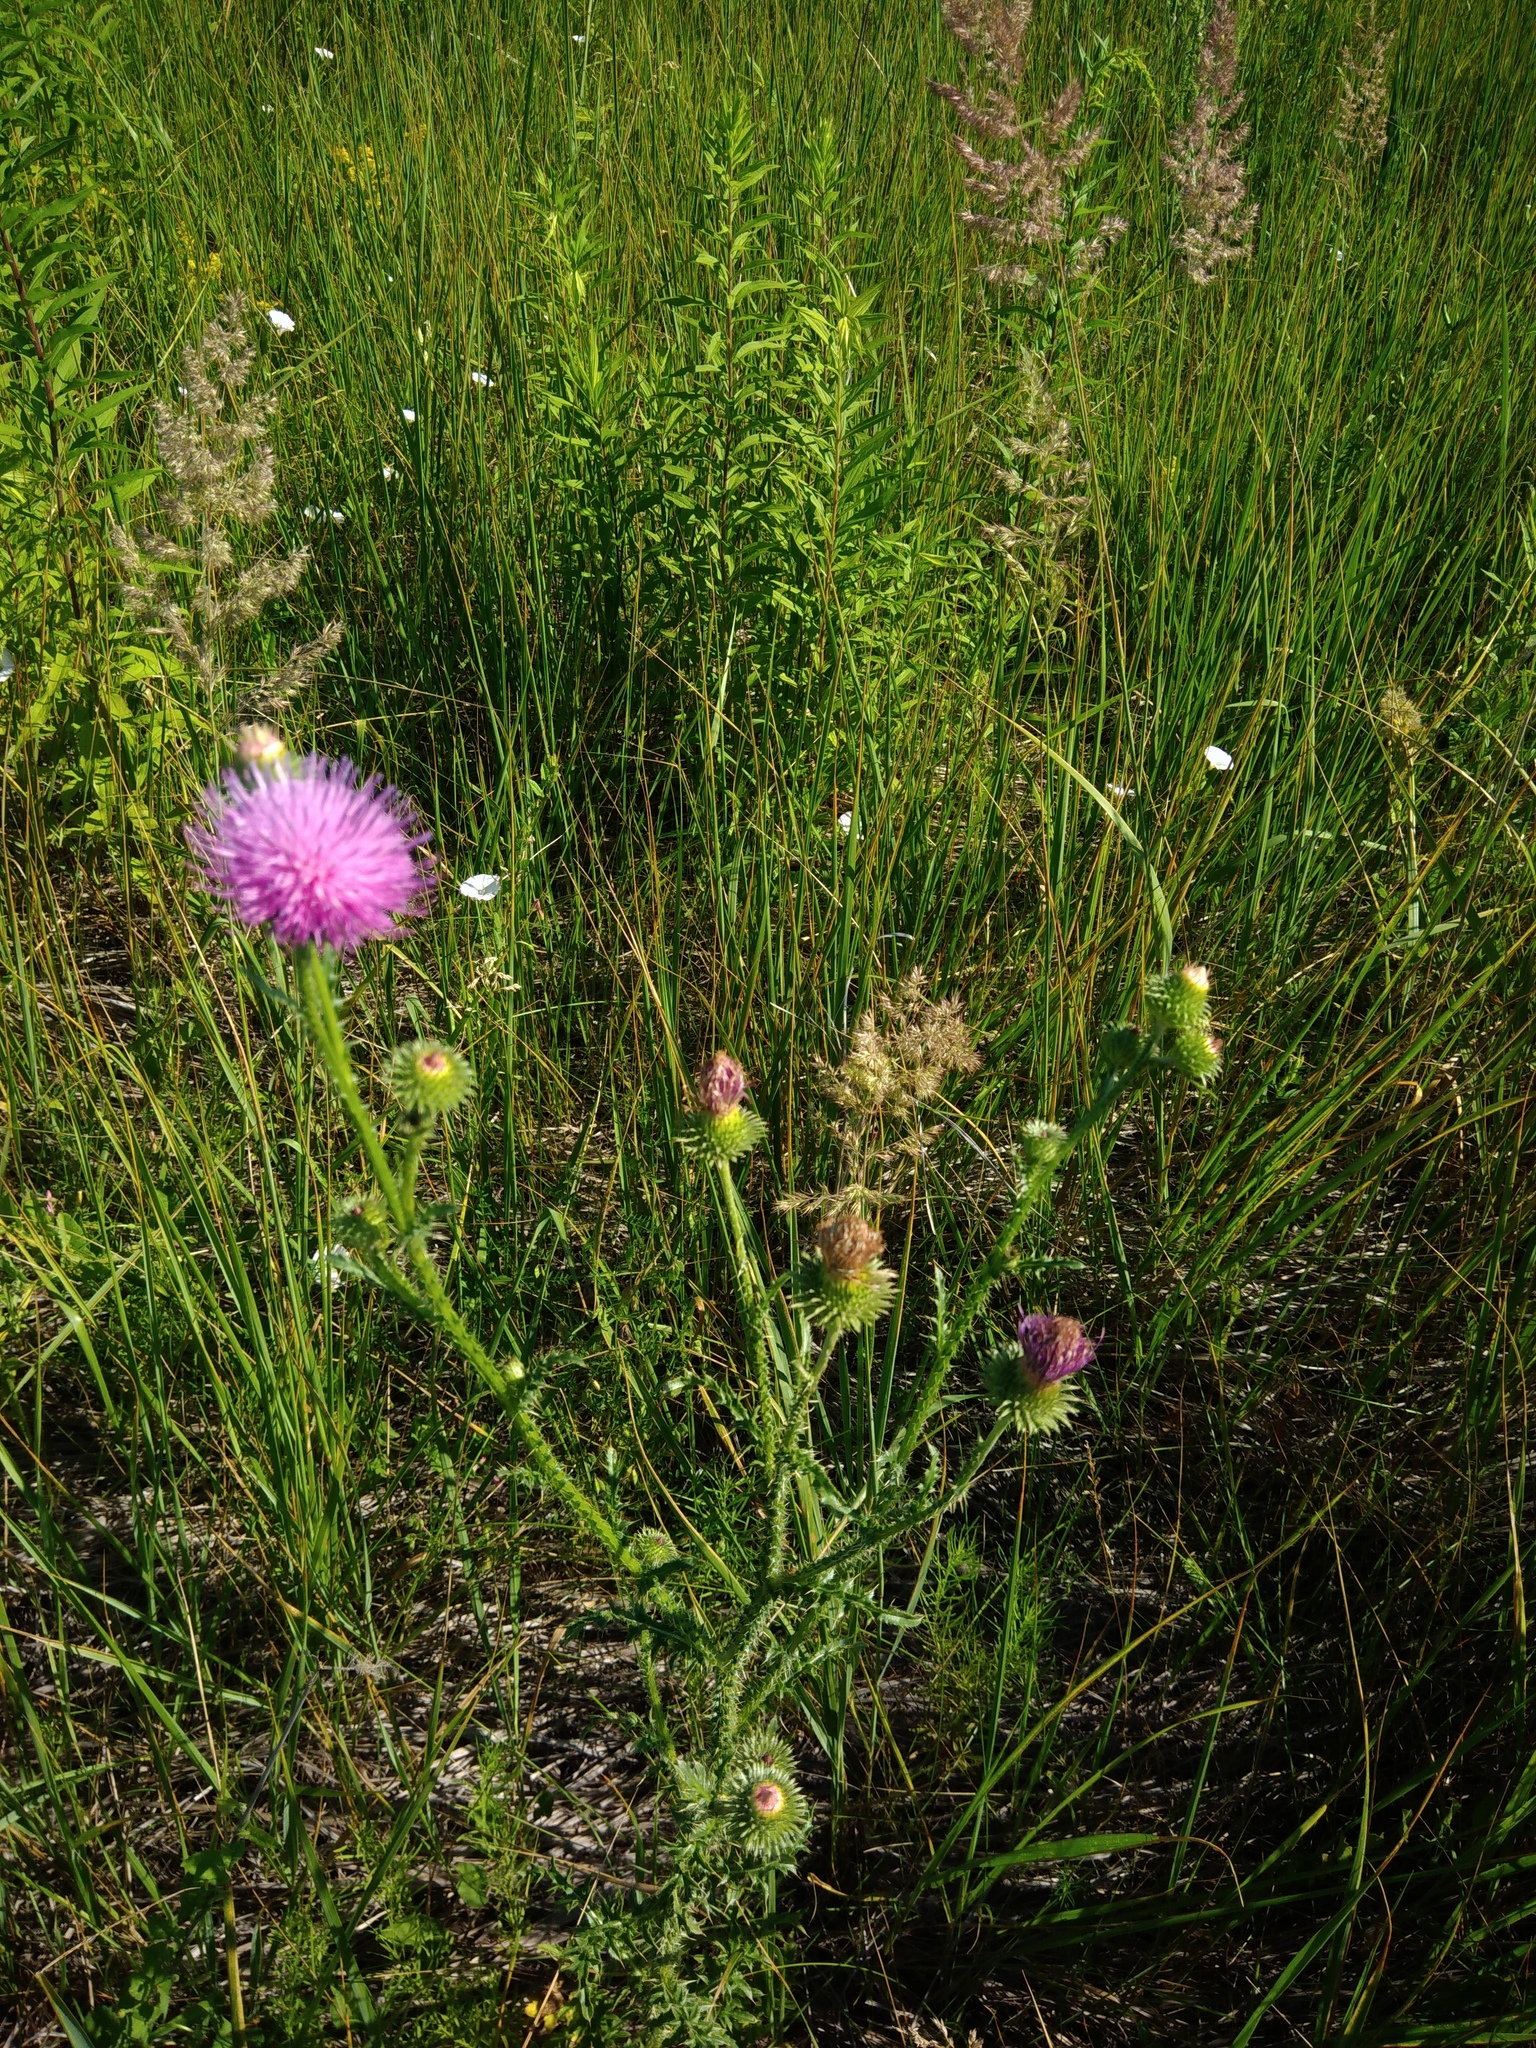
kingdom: Plantae
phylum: Tracheophyta
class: Magnoliopsida
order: Asterales
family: Asteraceae
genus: Carduus
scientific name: Carduus hamulosus
